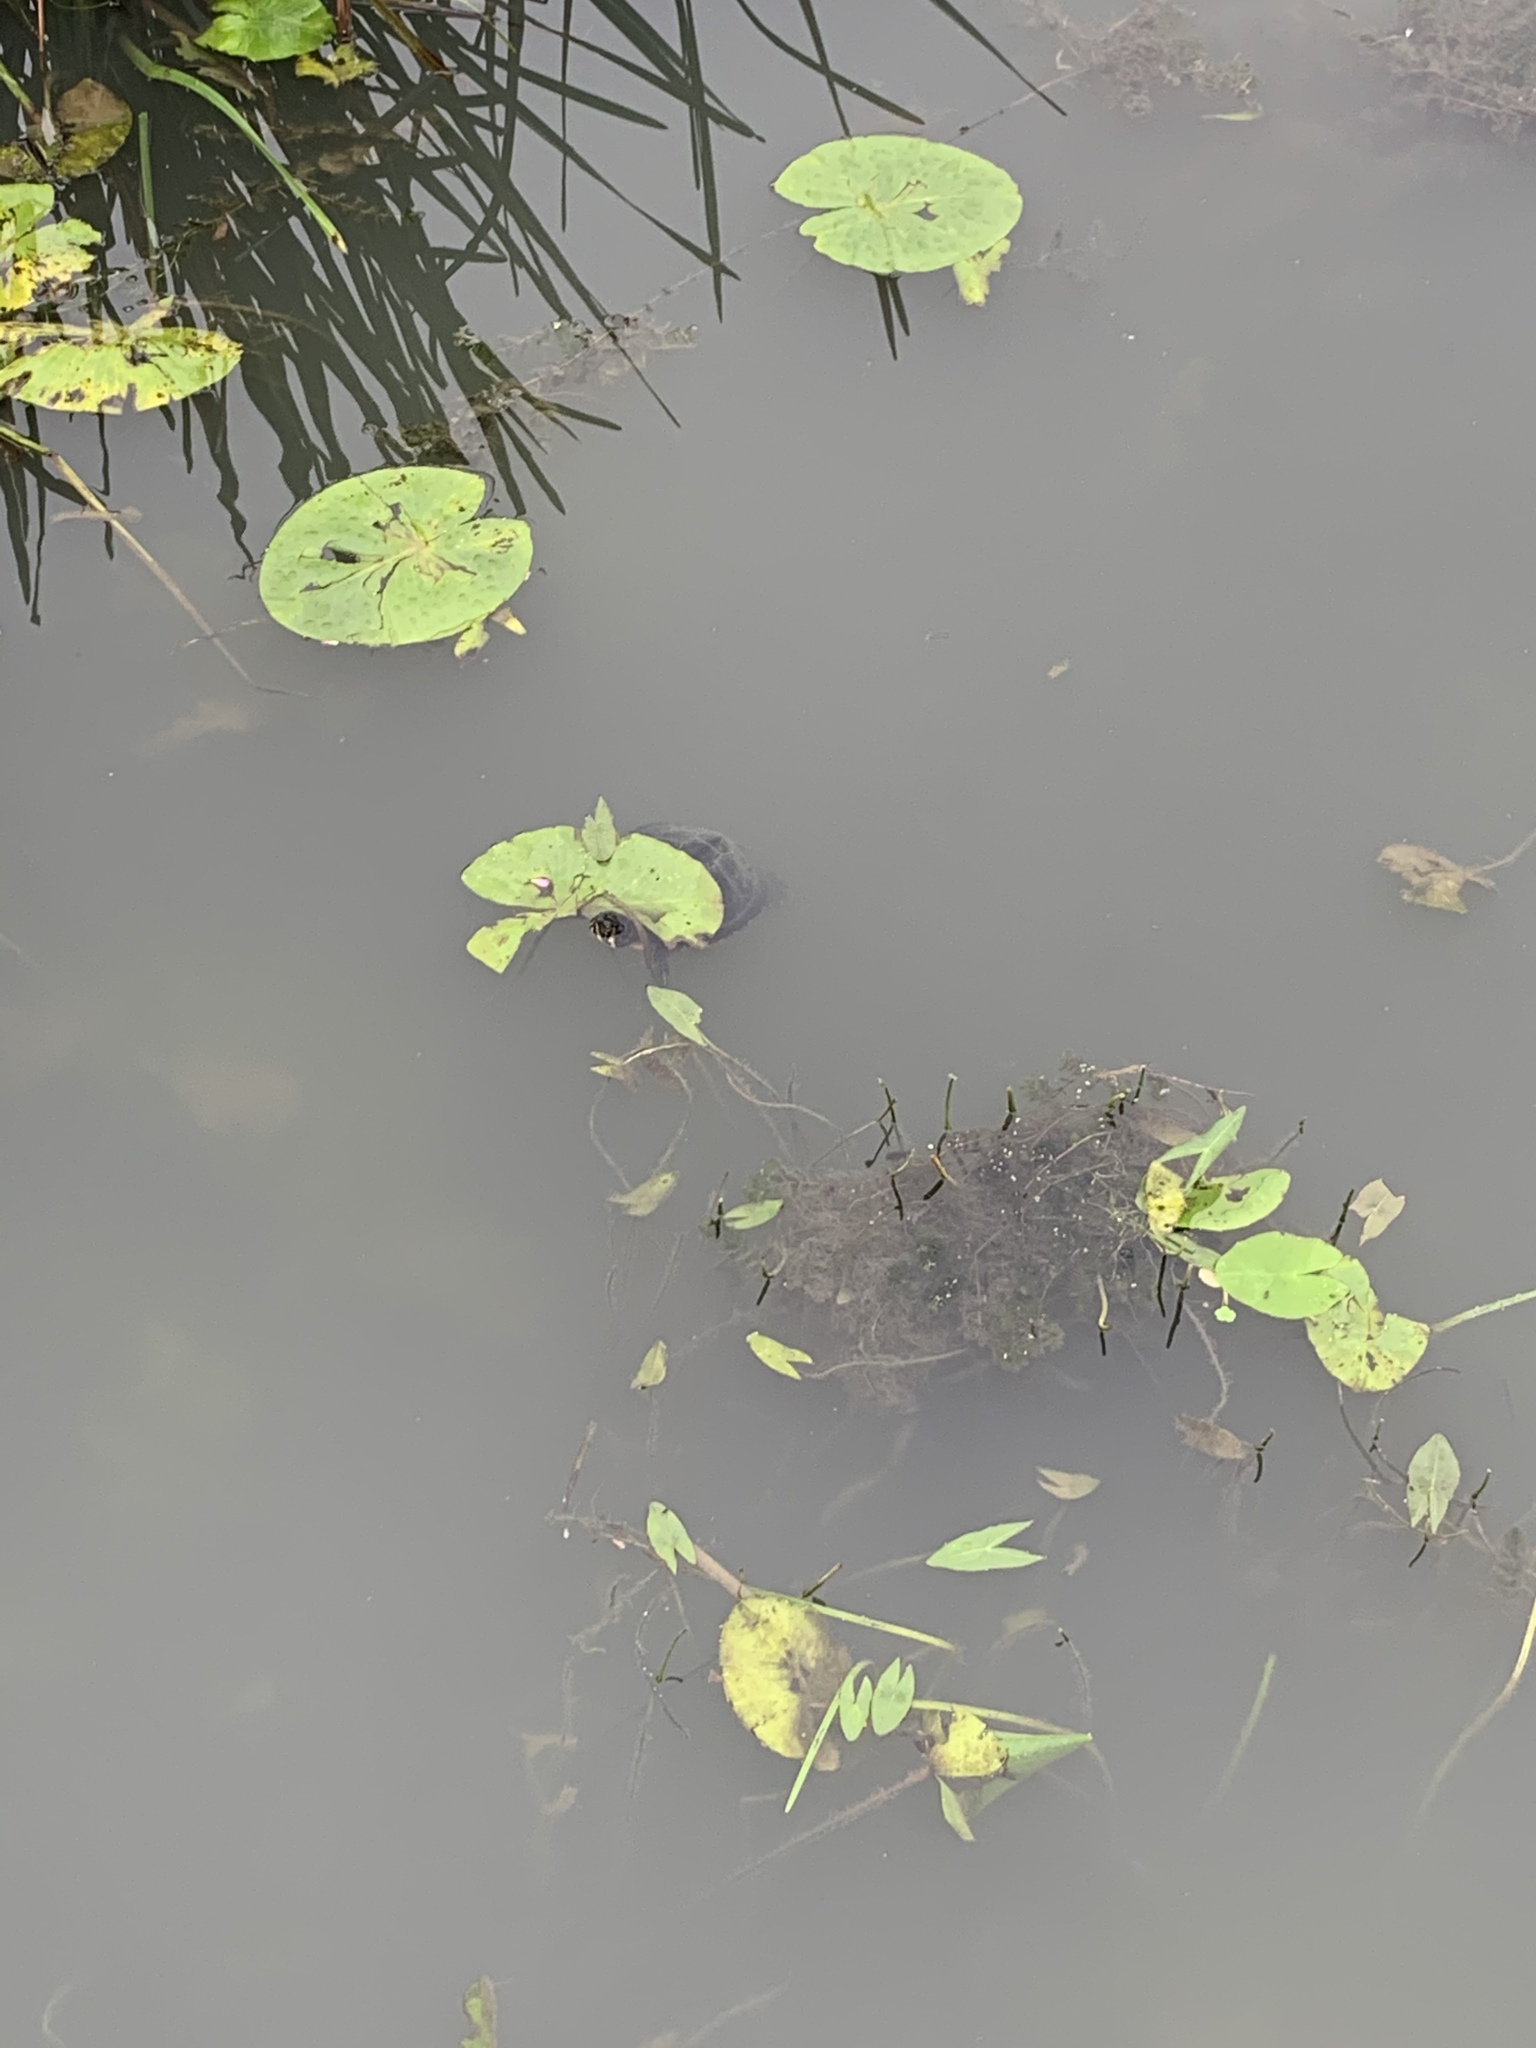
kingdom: Animalia
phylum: Chordata
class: Testudines
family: Emydidae
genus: Trachemys
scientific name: Trachemys scripta
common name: Slider
